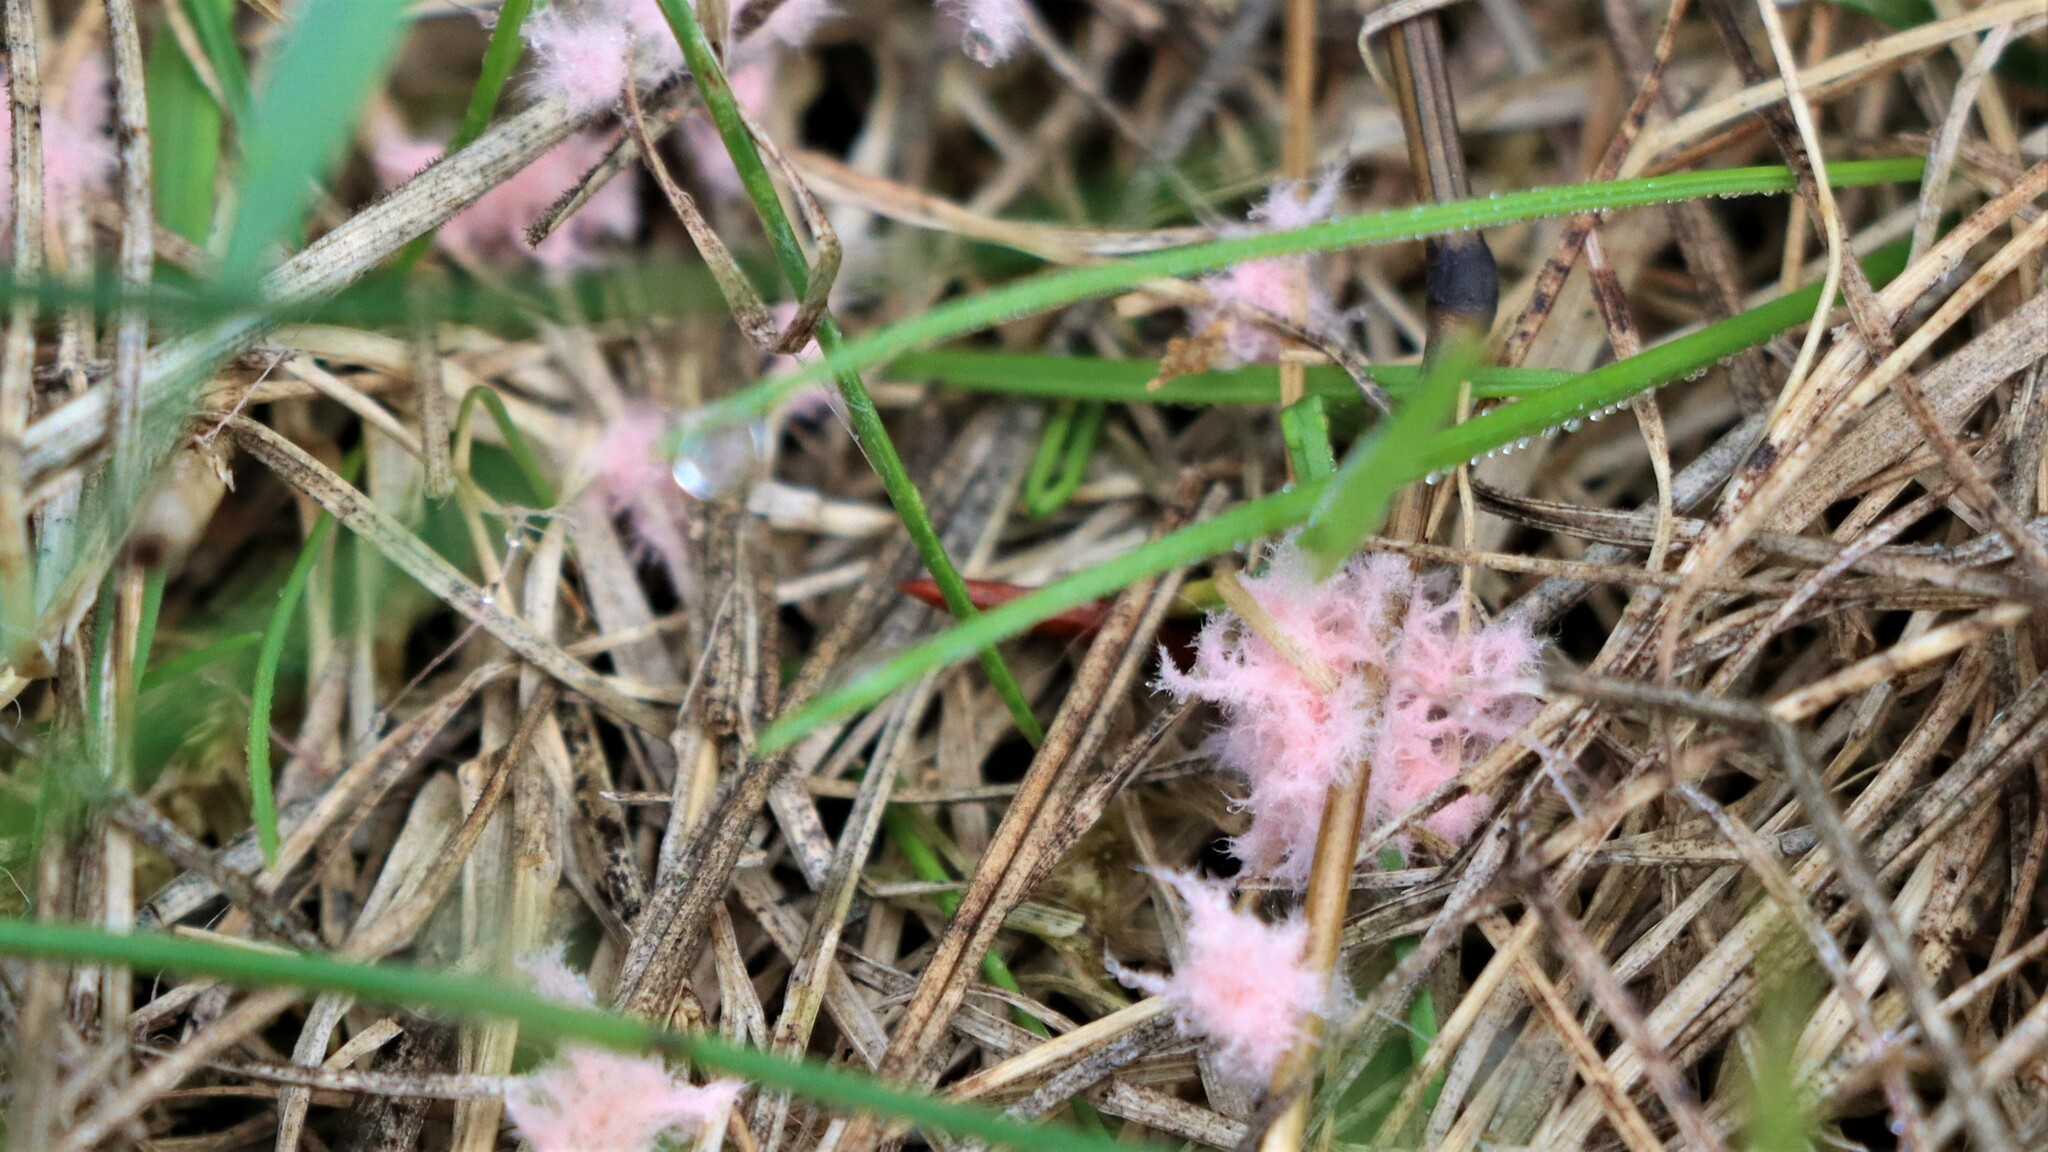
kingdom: Fungi
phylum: Basidiomycota
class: Agaricomycetes
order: Corticiales
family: Corticiaceae
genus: Laetisaria
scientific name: Laetisaria fuciformis
